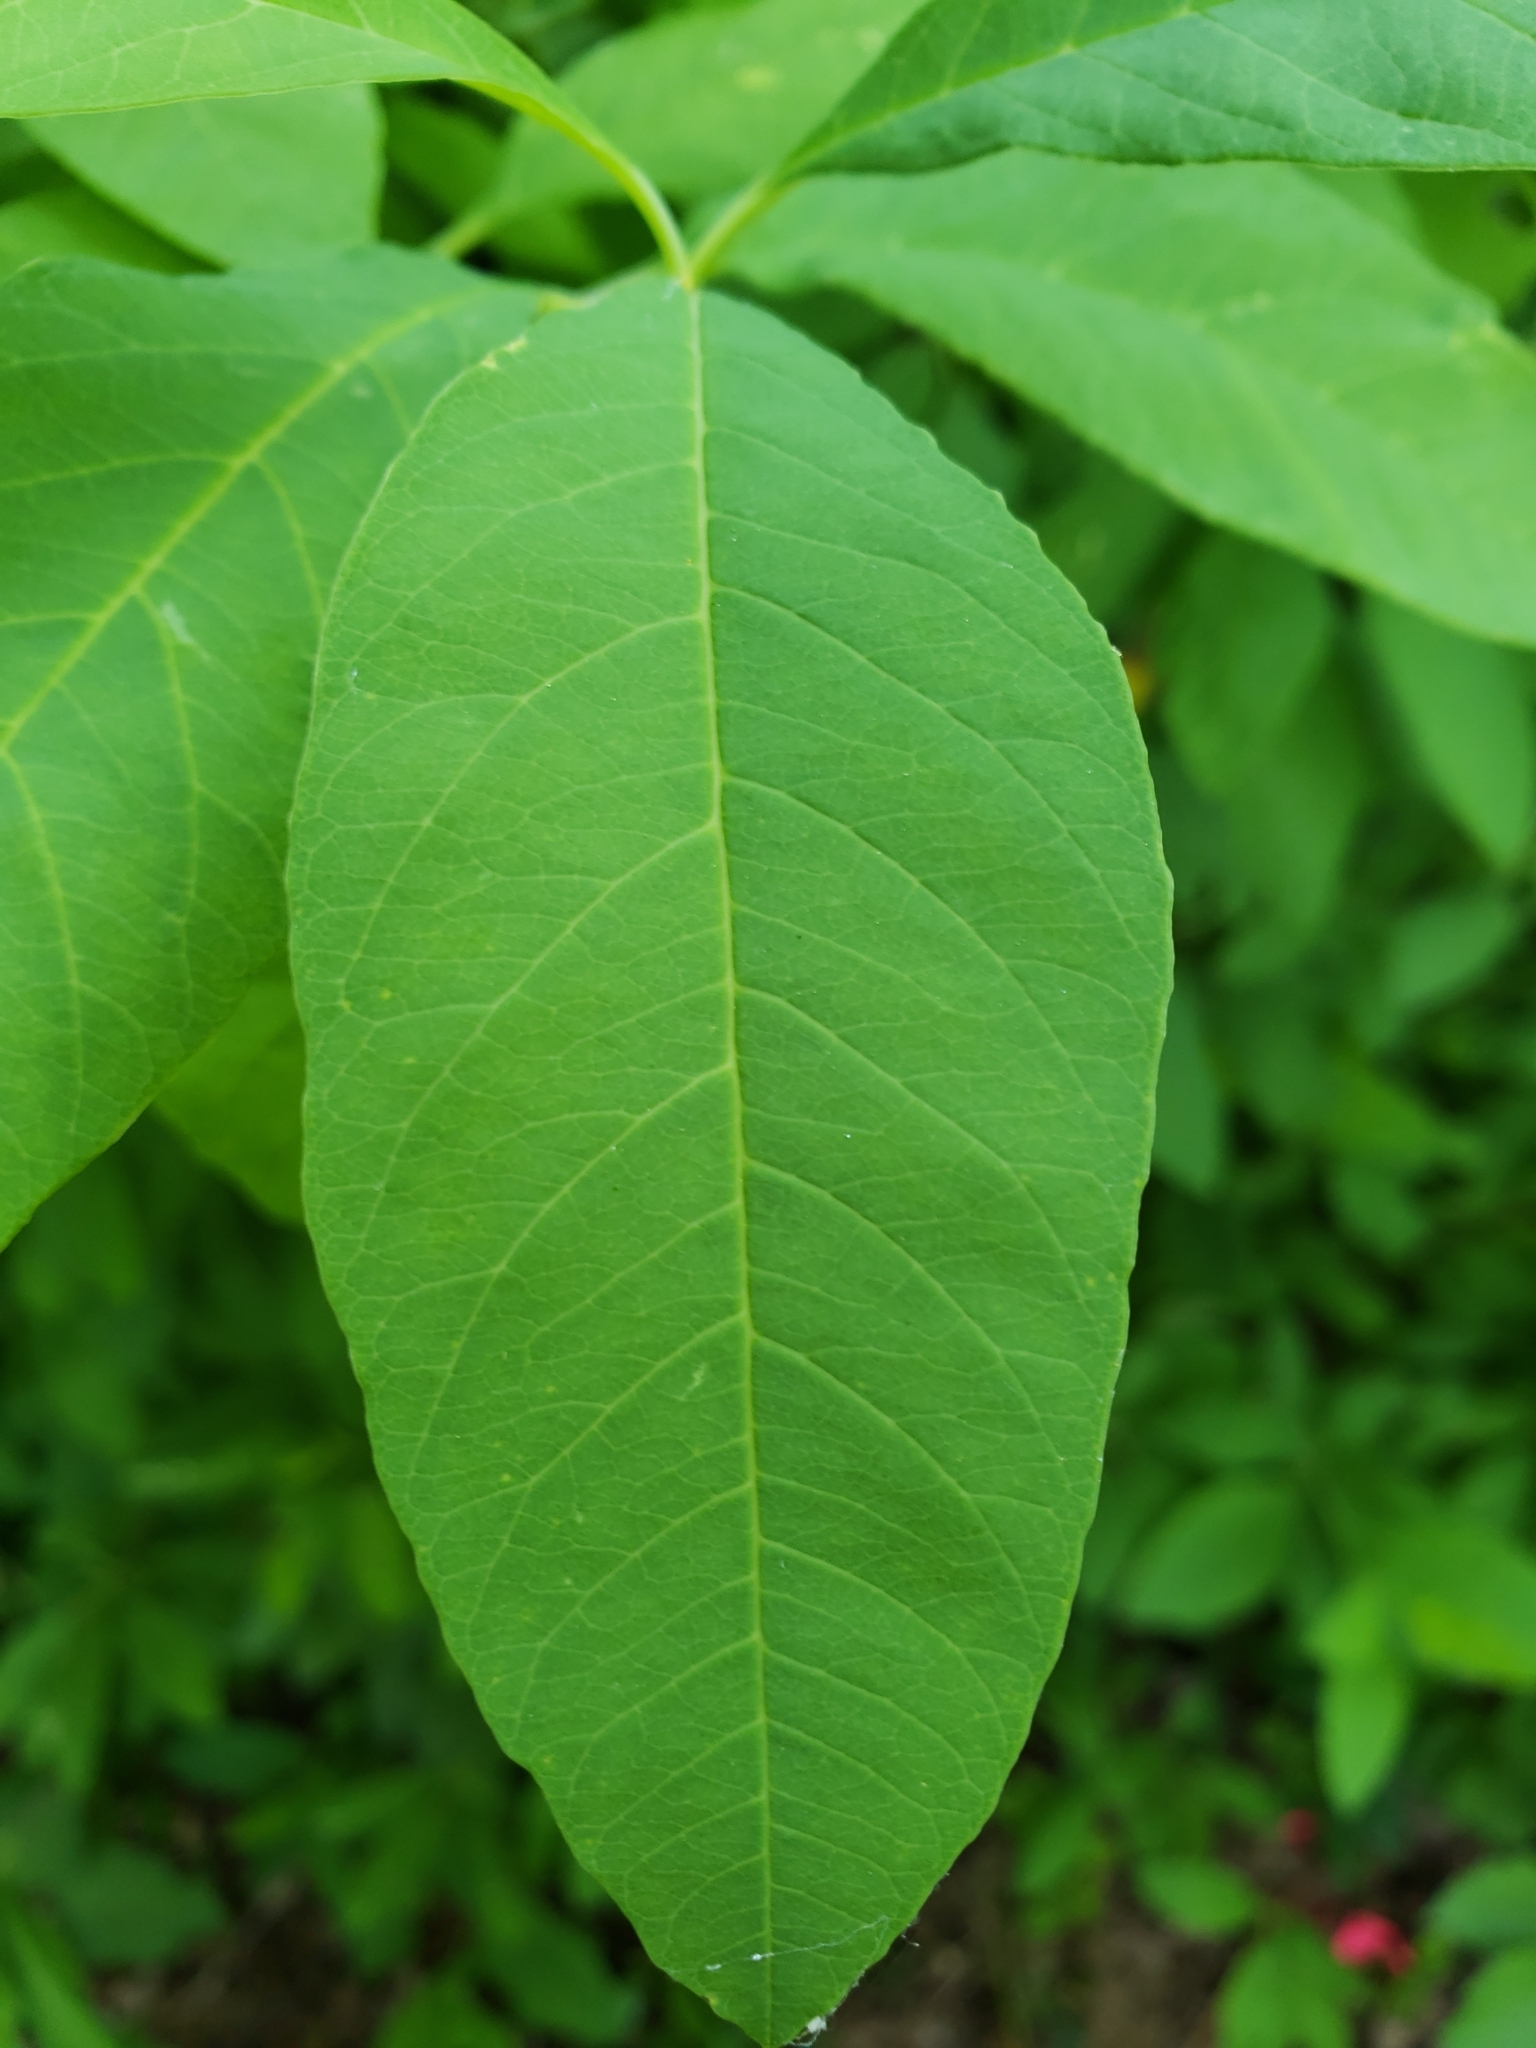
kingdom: Plantae
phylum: Tracheophyta
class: Magnoliopsida
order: Rosales
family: Rosaceae
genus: Oemleria
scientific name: Oemleria cerasiformis
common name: Osoberry
